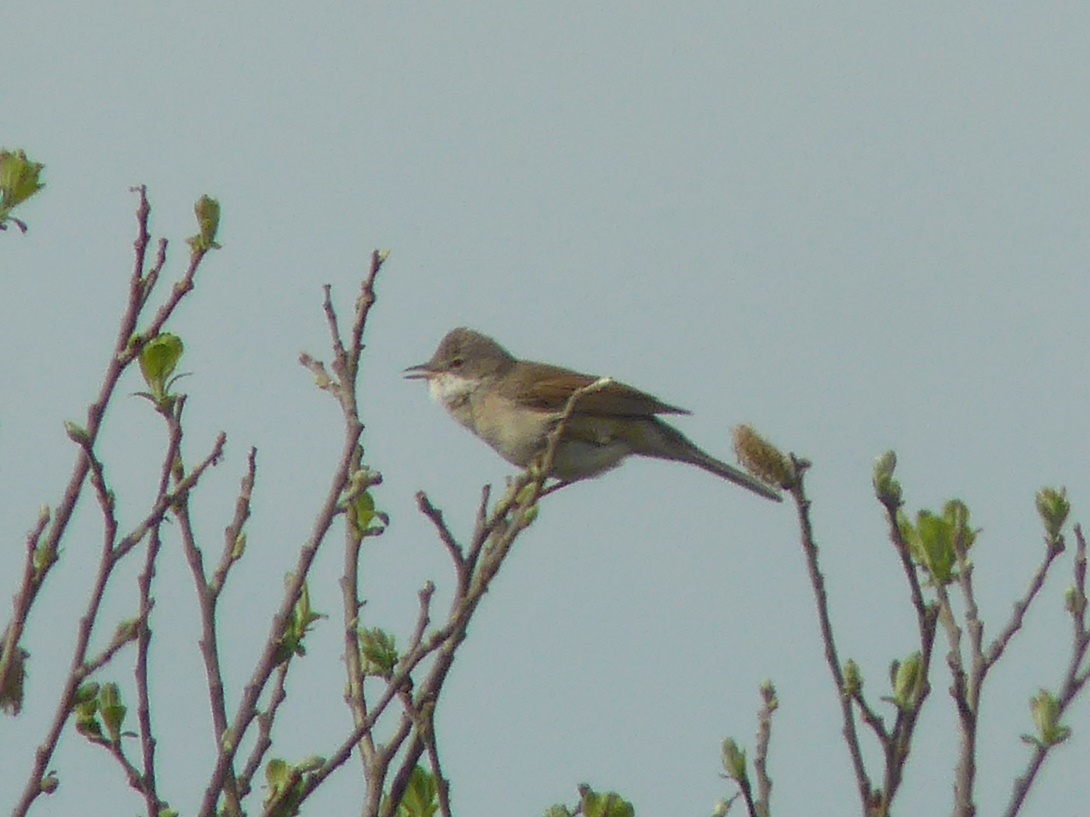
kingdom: Animalia
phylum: Chordata
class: Aves
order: Passeriformes
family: Sylviidae
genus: Sylvia
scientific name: Sylvia communis
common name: Common whitethroat
